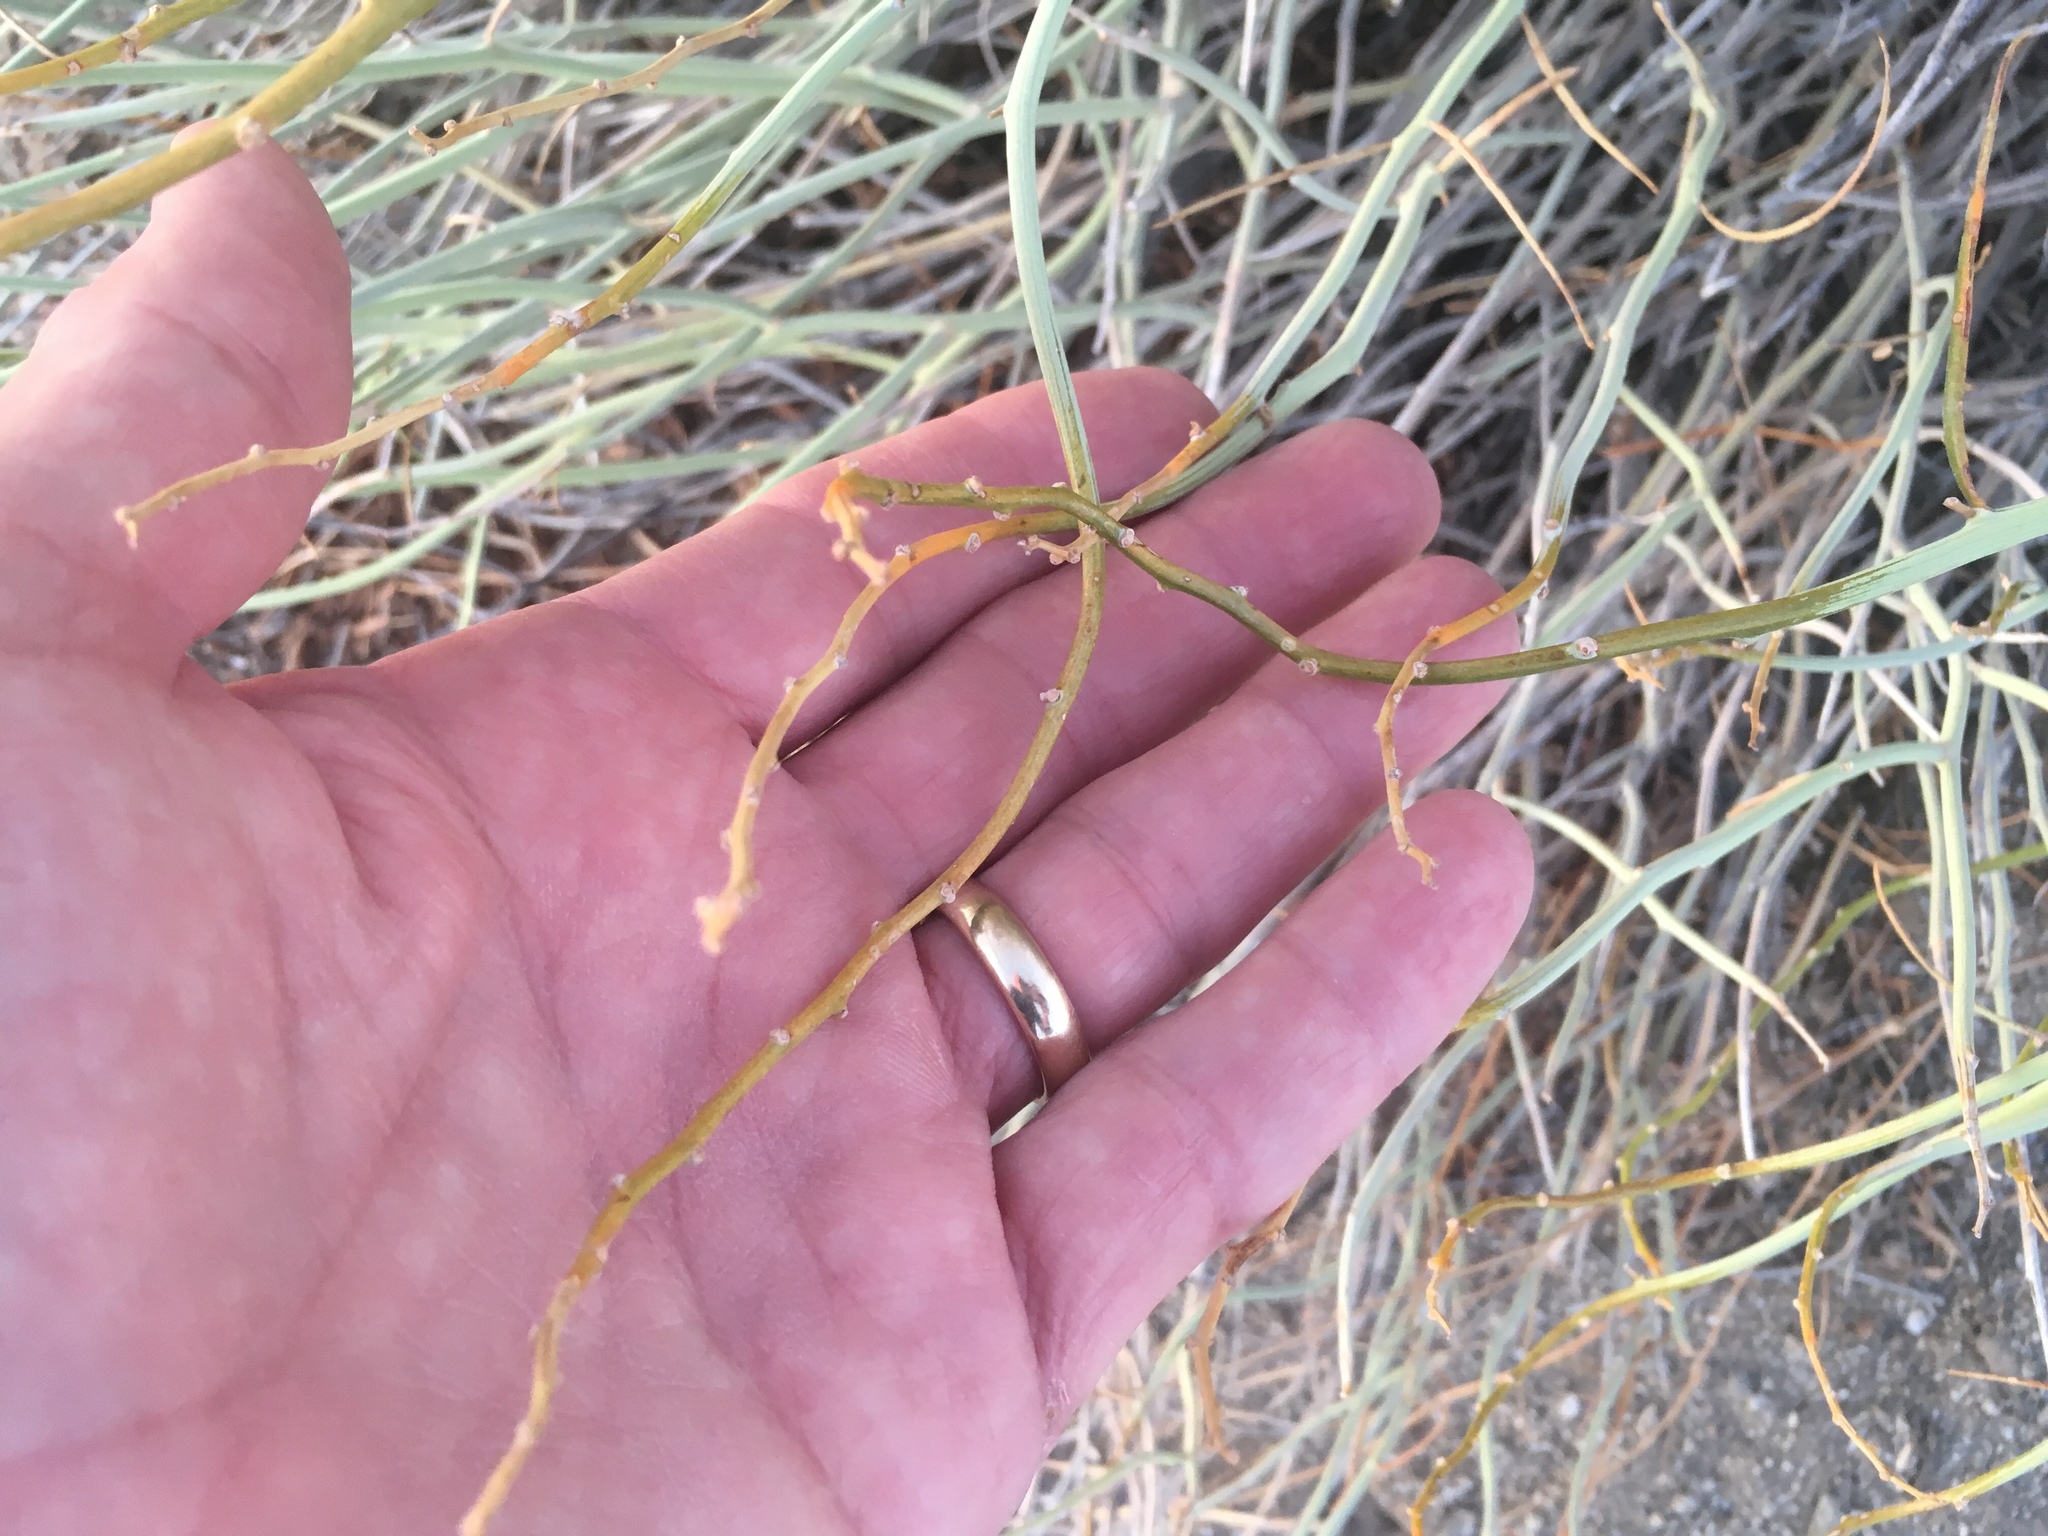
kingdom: Plantae
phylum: Tracheophyta
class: Magnoliopsida
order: Fabales
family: Fabaceae
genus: Senna
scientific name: Senna armata
